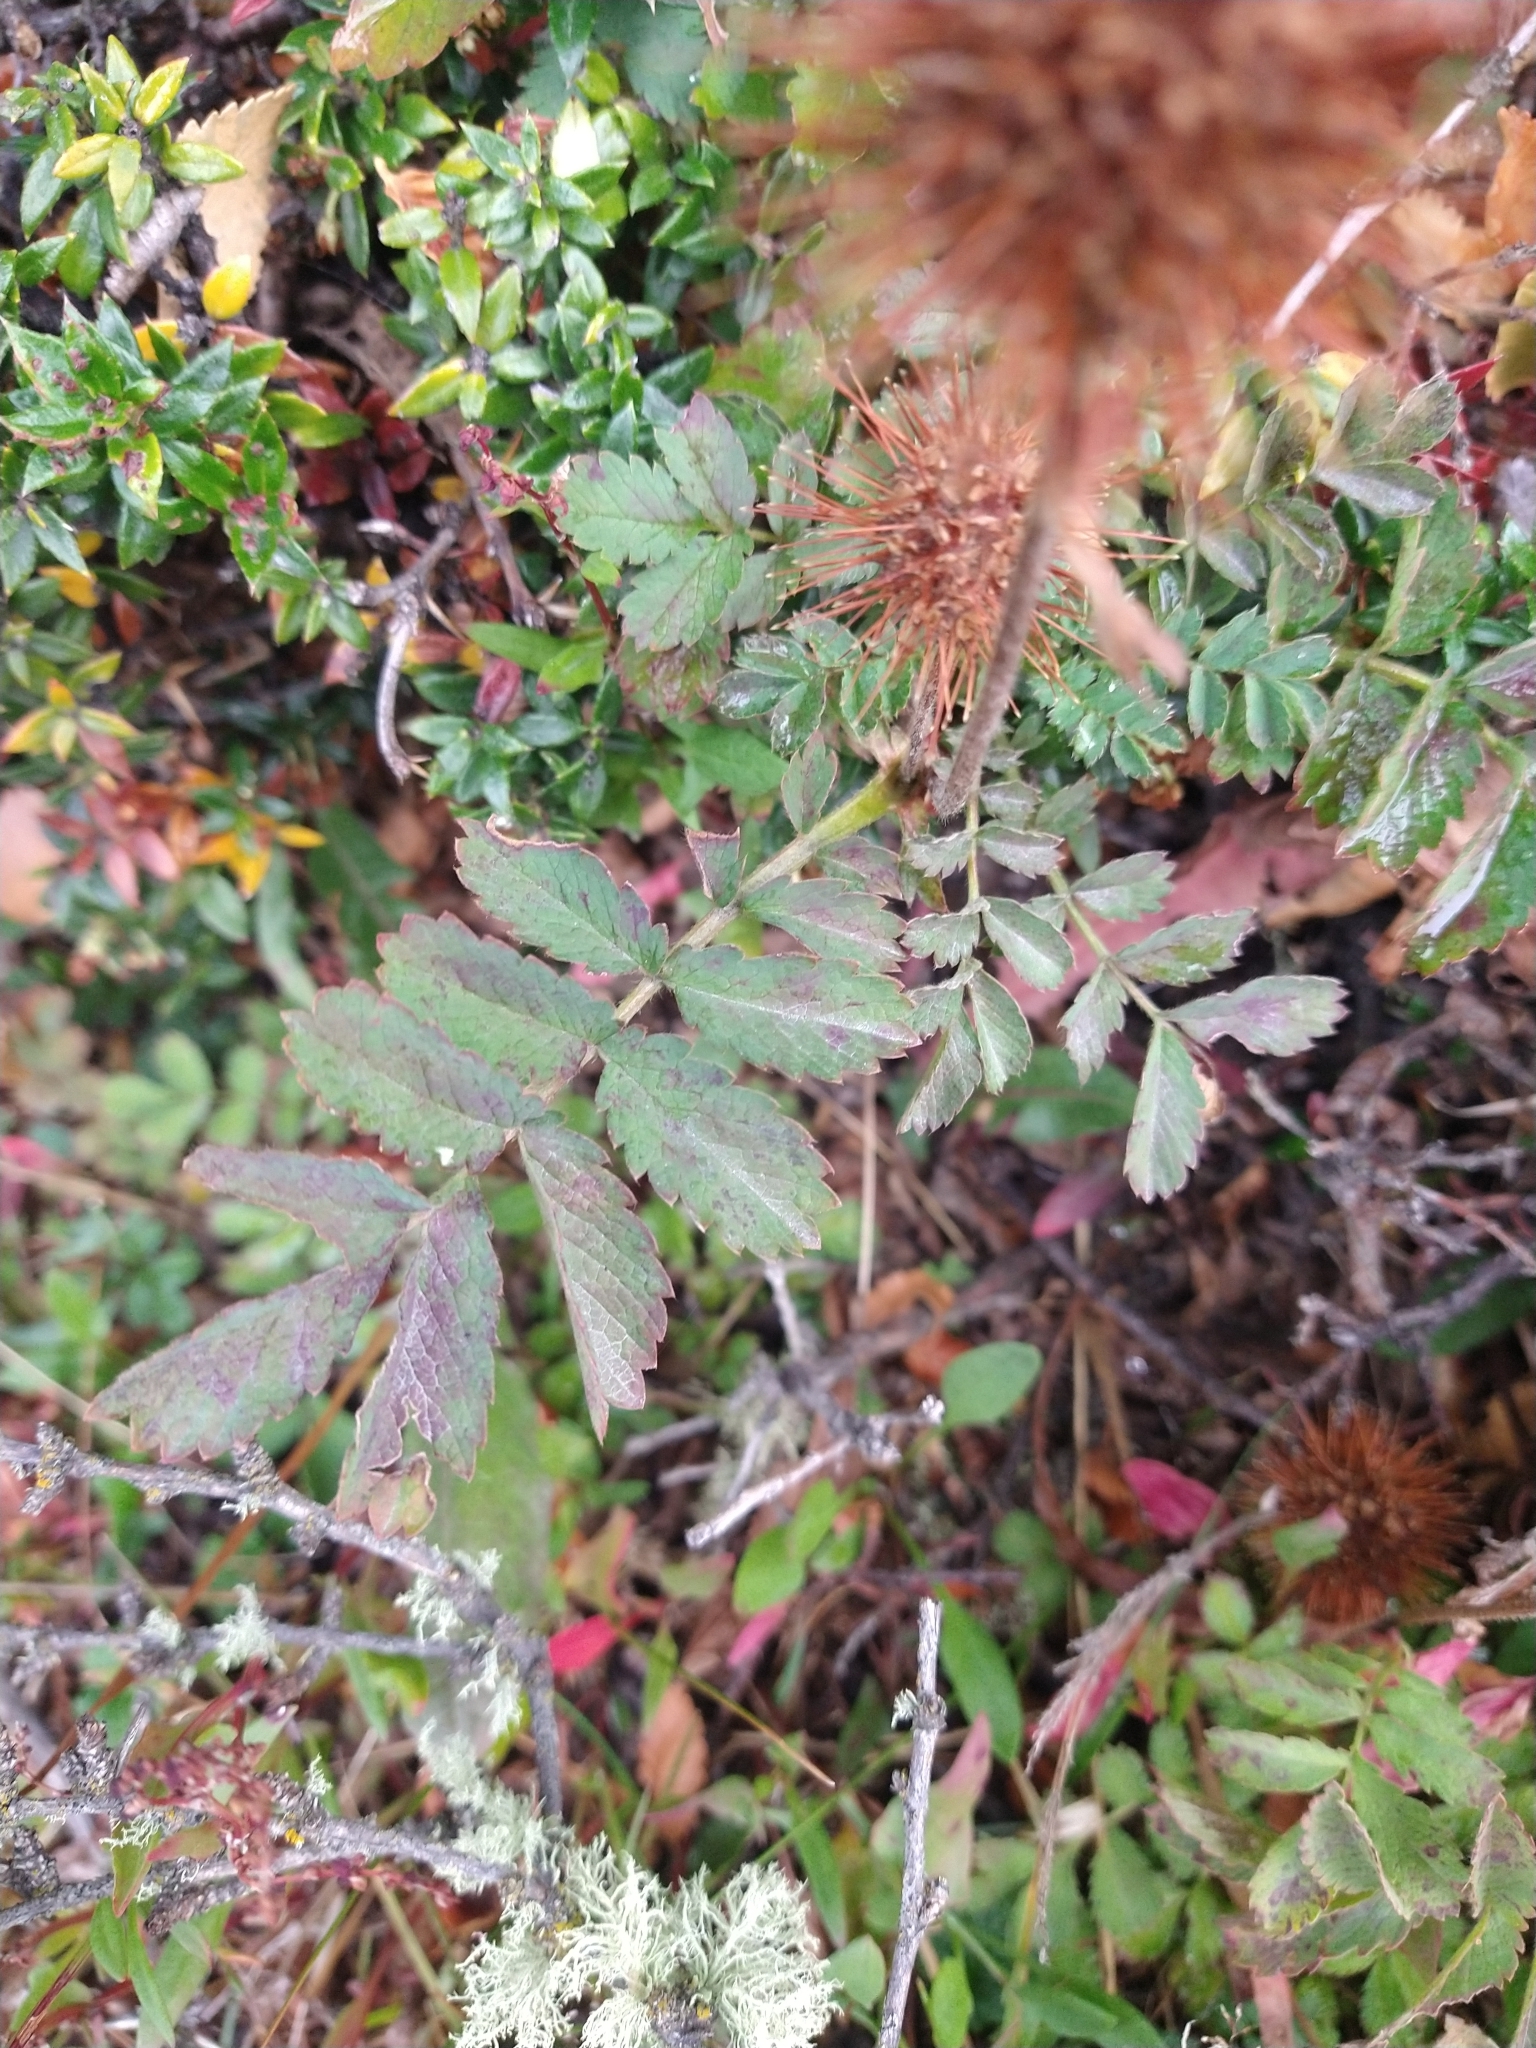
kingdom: Plantae
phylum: Tracheophyta
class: Magnoliopsida
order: Rosales
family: Rosaceae
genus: Acaena
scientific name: Acaena magellanica
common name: New zealand burr
